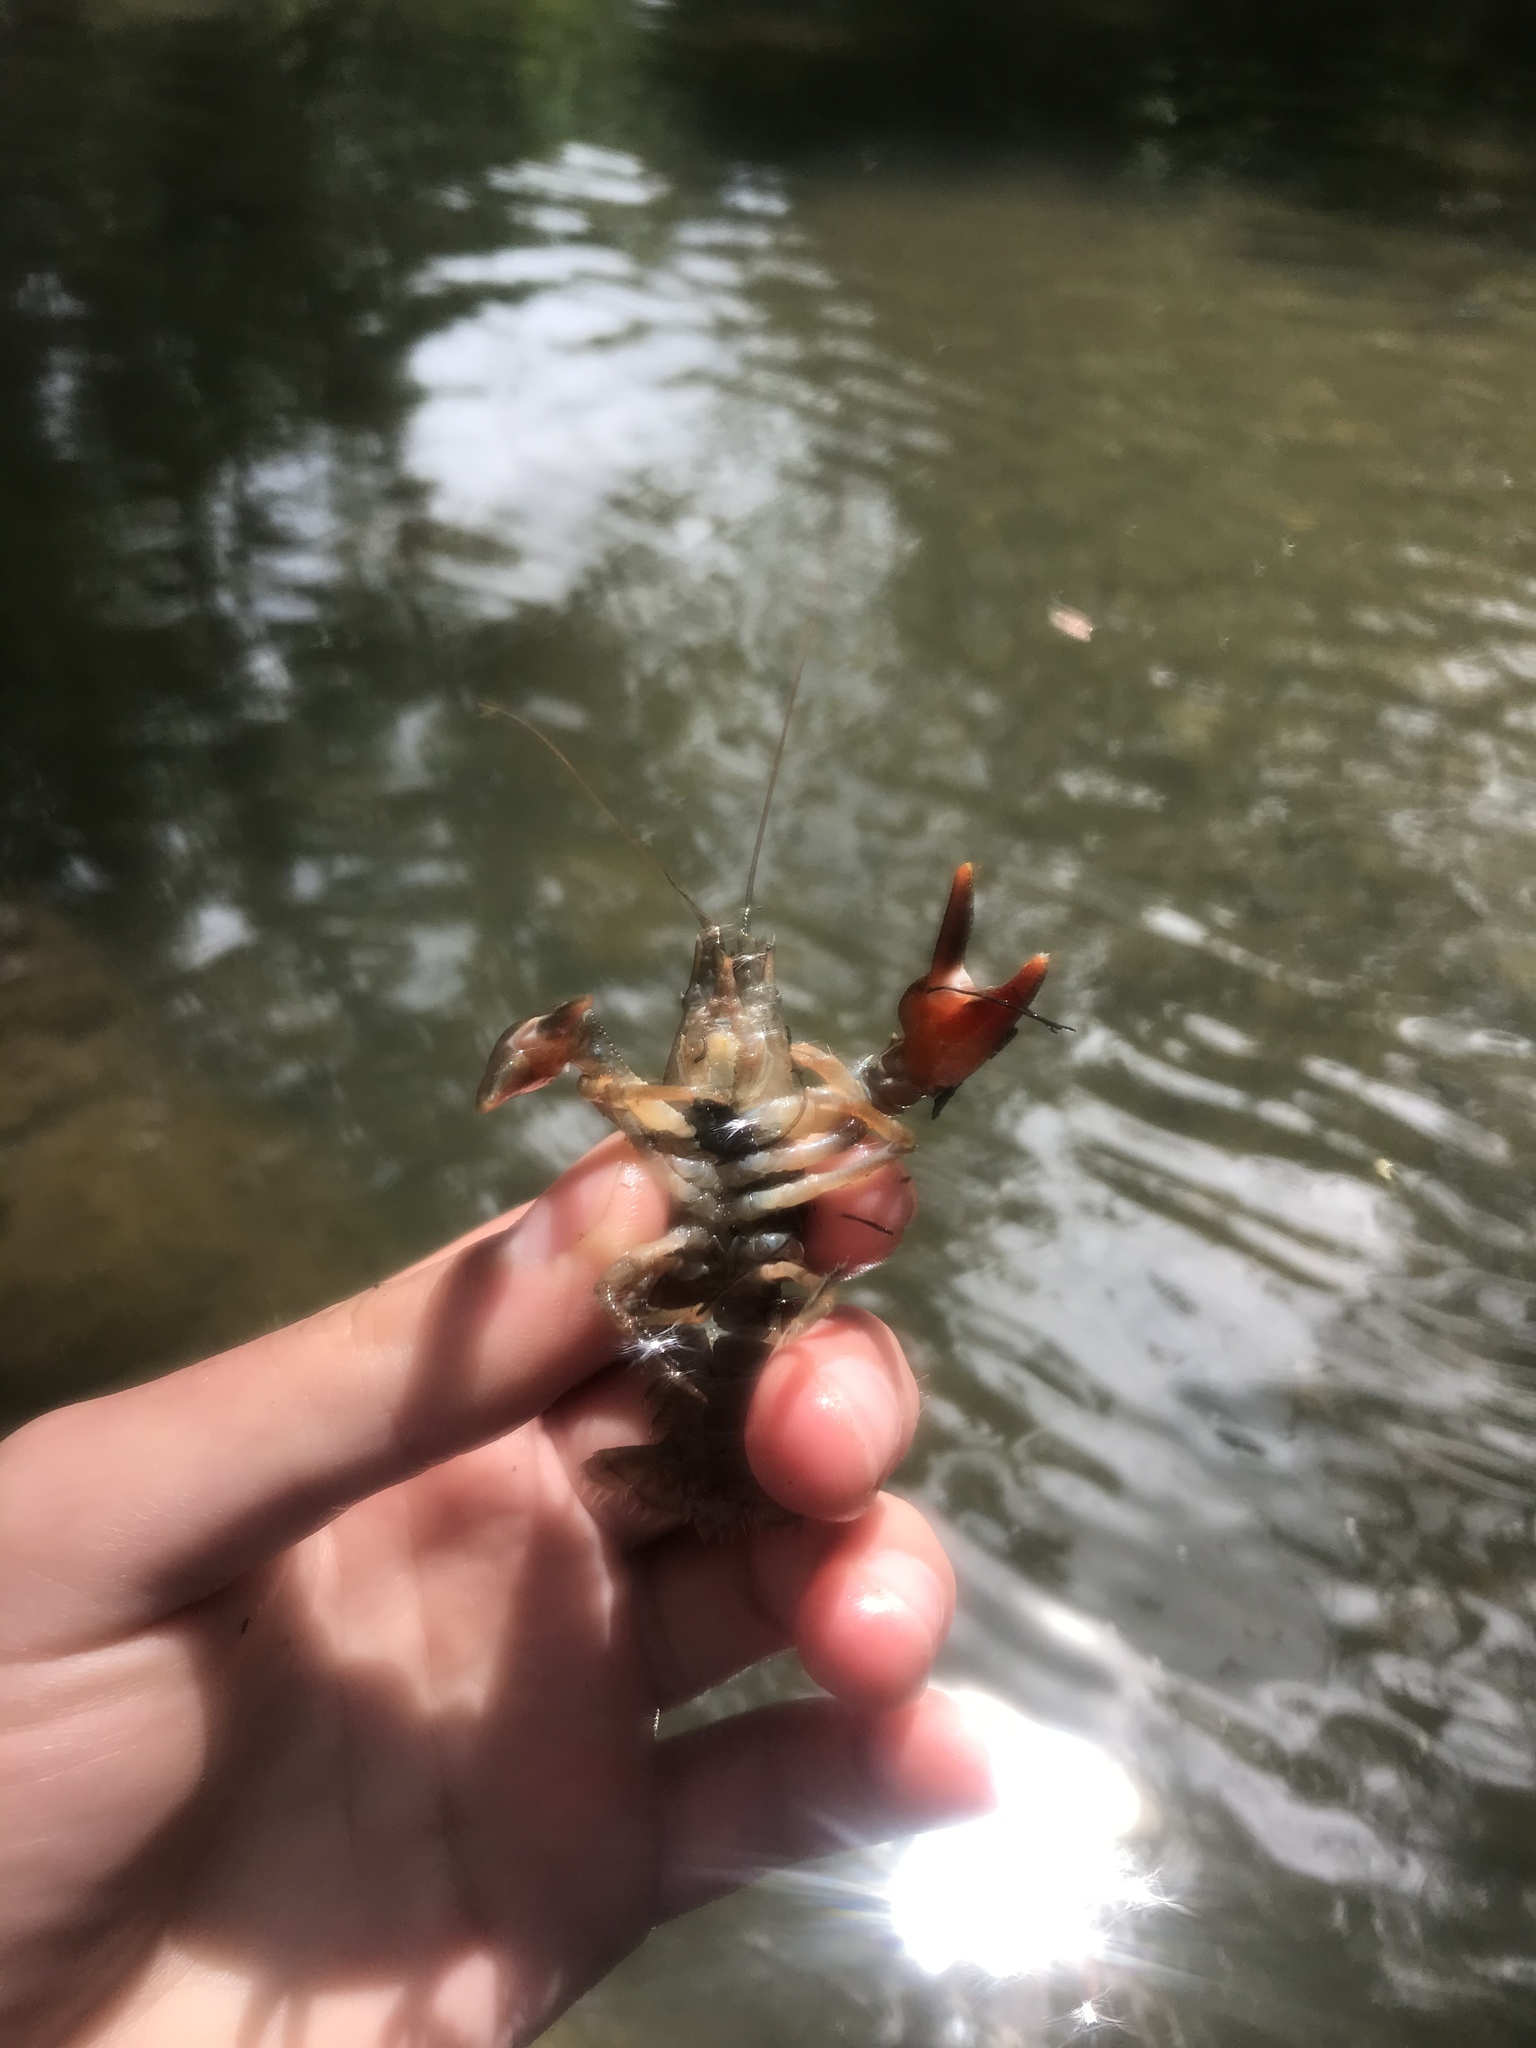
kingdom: Animalia
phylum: Arthropoda
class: Malacostraca
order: Decapoda
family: Astacidae
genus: Pacifastacus
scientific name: Pacifastacus leniusculus
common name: Signal crayfish
